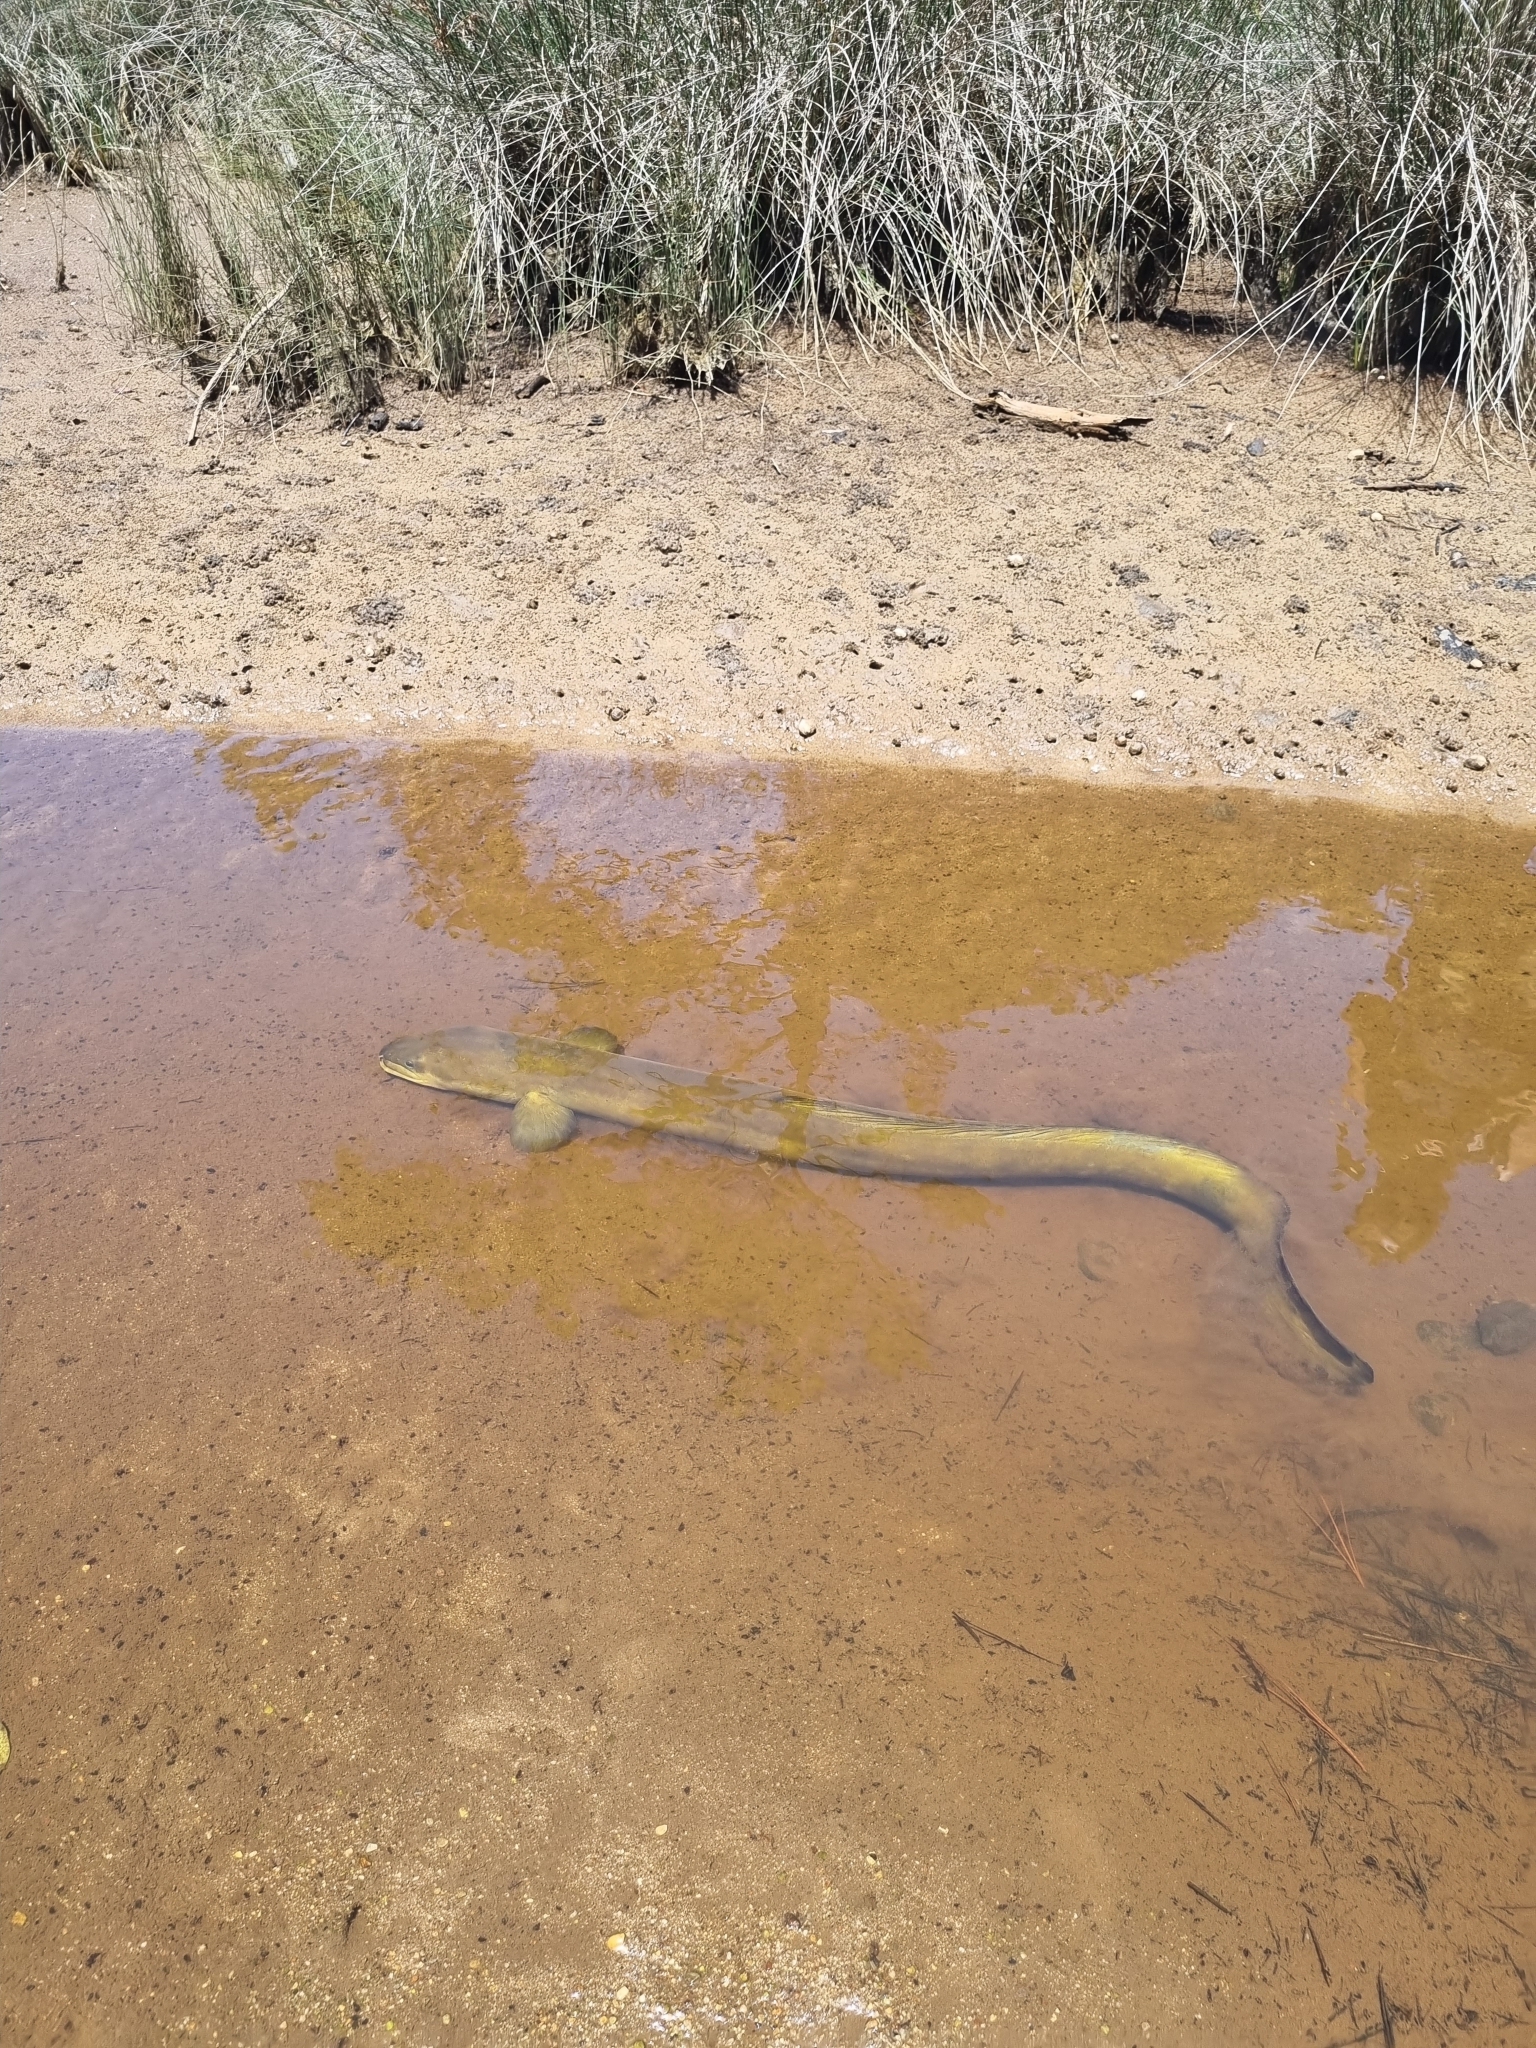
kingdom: Animalia
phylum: Chordata
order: Anguilliformes
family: Anguillidae
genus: Anguilla
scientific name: Anguilla dieffenbachii
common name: New zealand longfin eel
